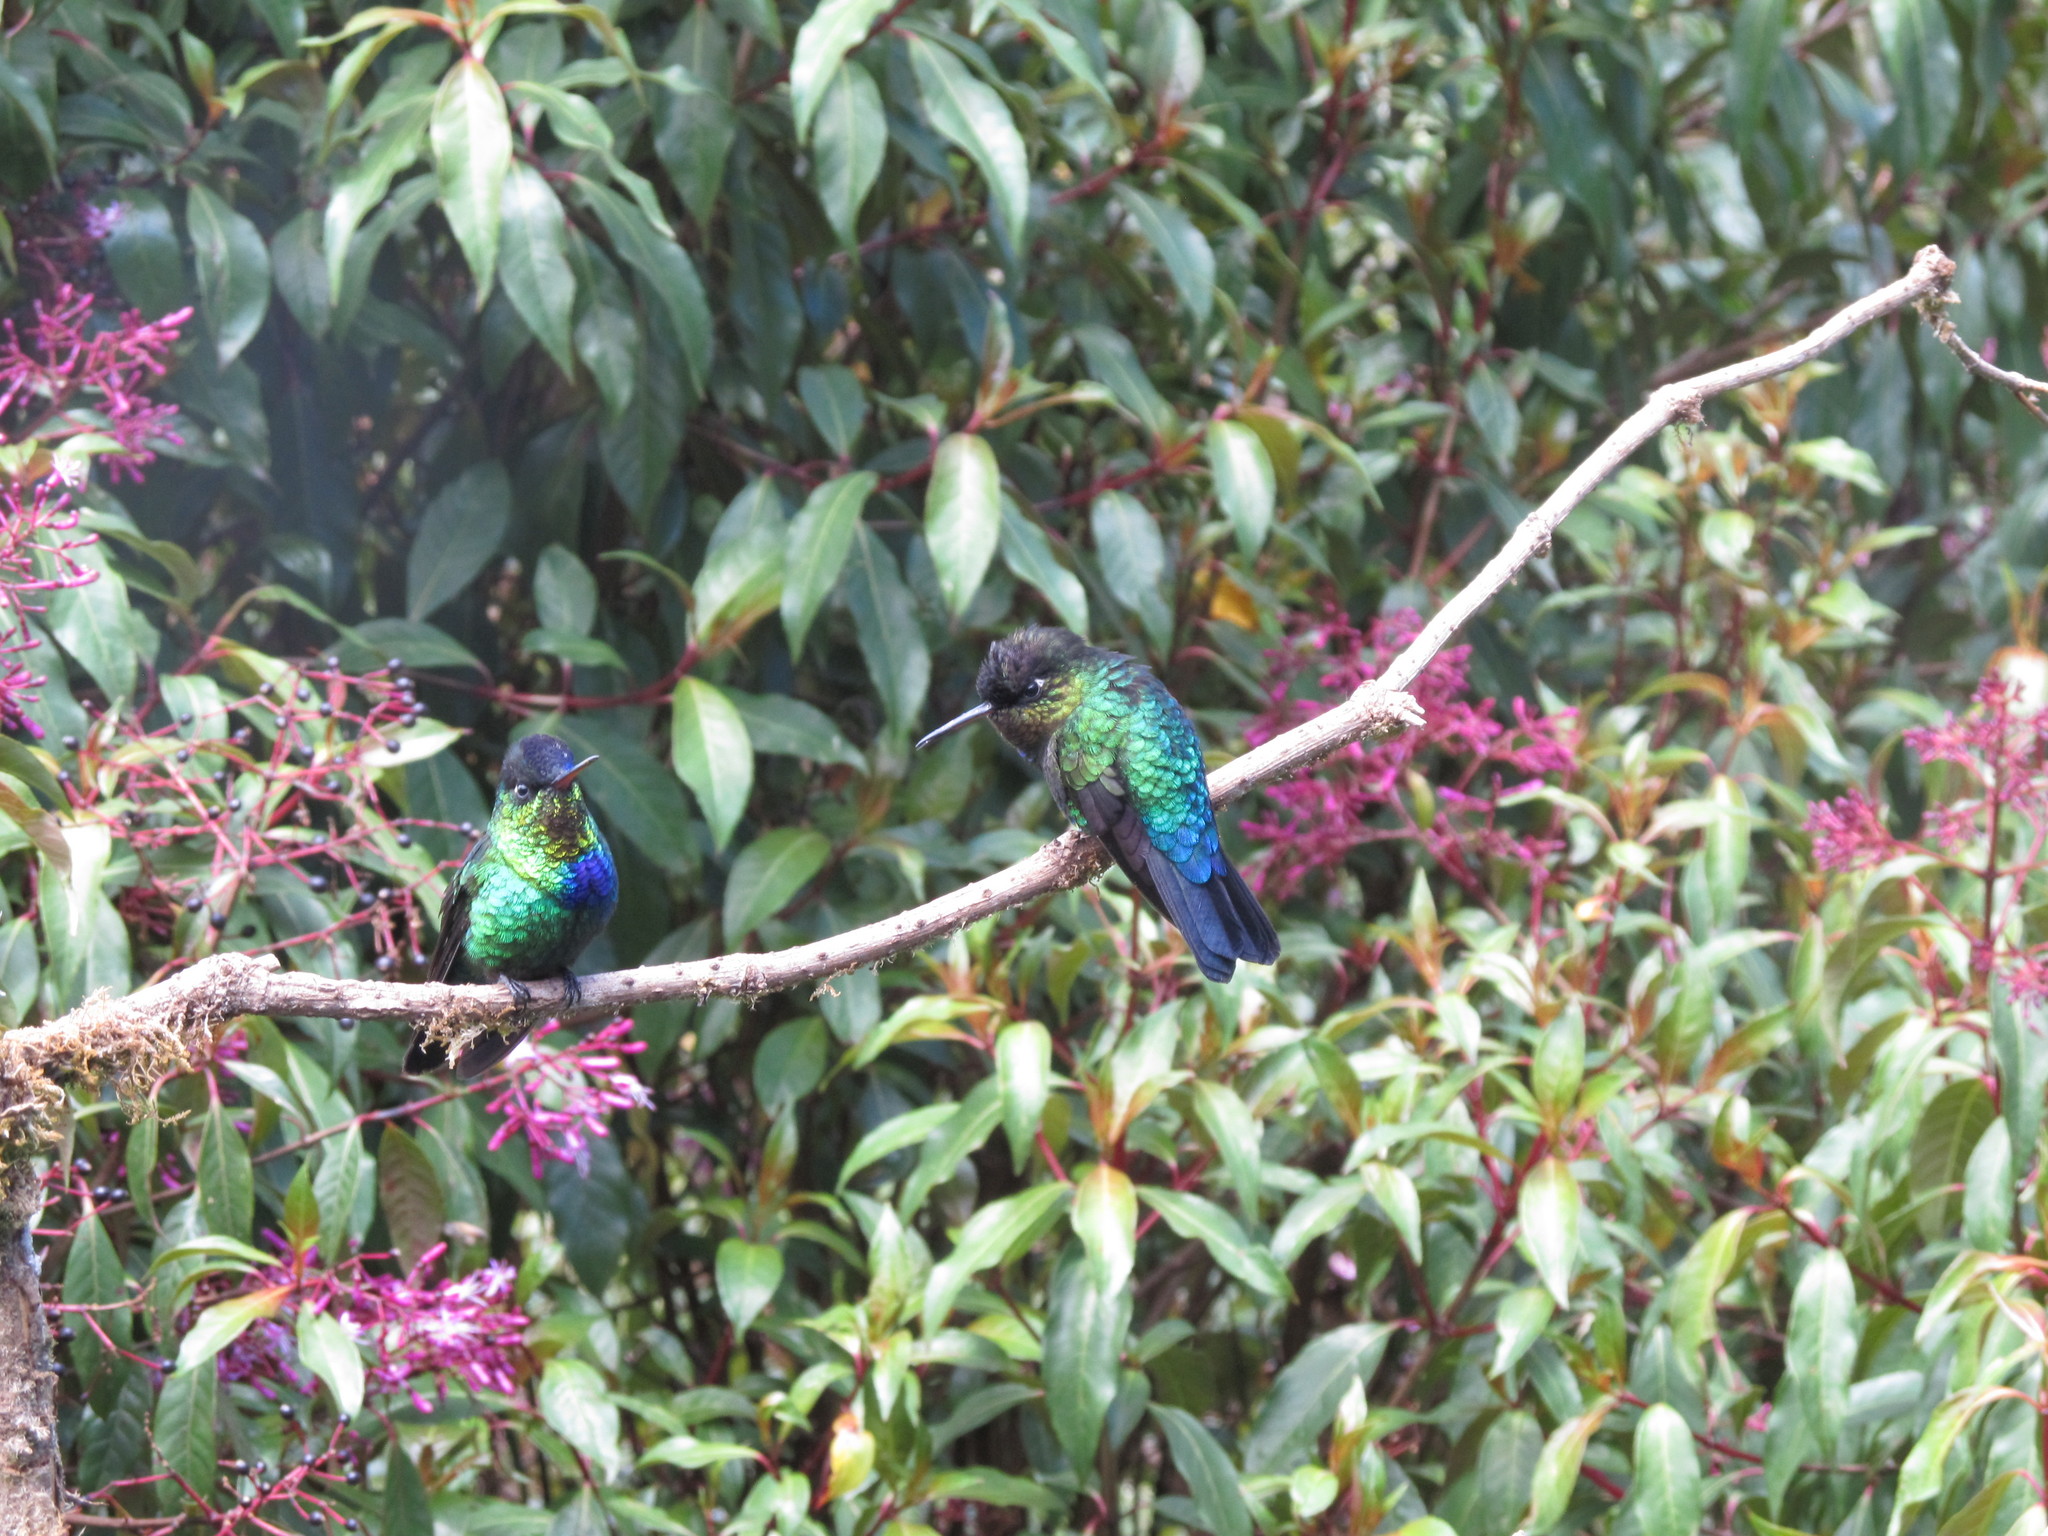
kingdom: Animalia
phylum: Chordata
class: Aves
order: Apodiformes
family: Trochilidae
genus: Panterpe
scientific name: Panterpe insignis
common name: Fiery-throated hummingbird
